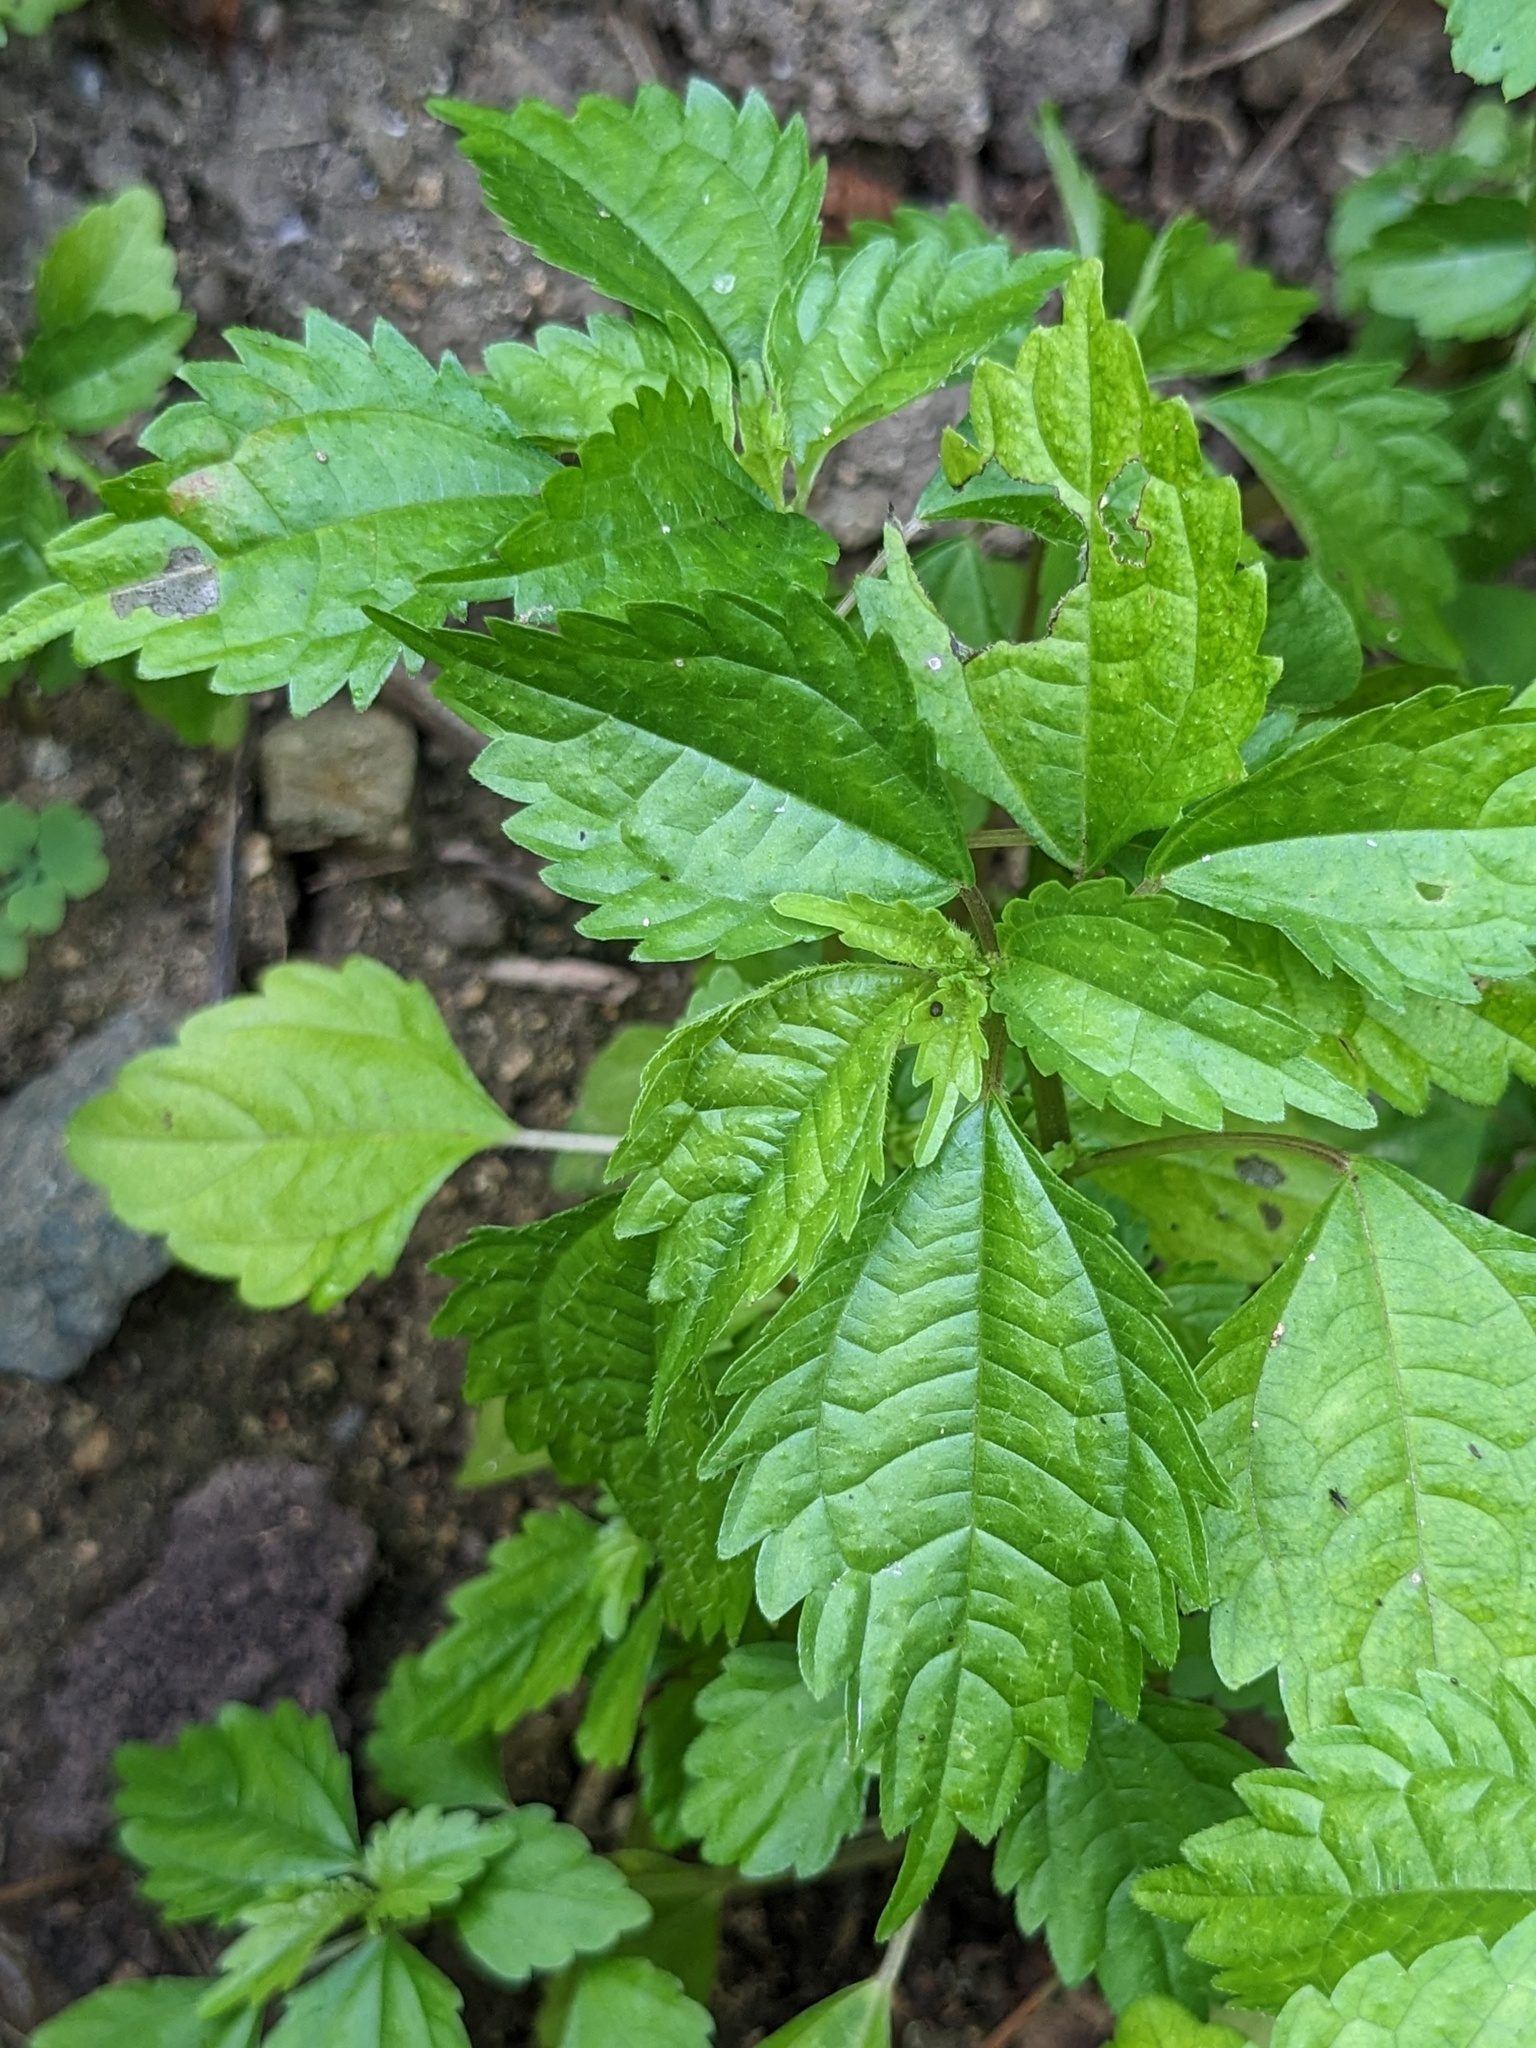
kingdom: Plantae
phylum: Tracheophyta
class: Magnoliopsida
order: Rosales
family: Urticaceae
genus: Pilea
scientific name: Pilea pumila
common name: Clearweed
